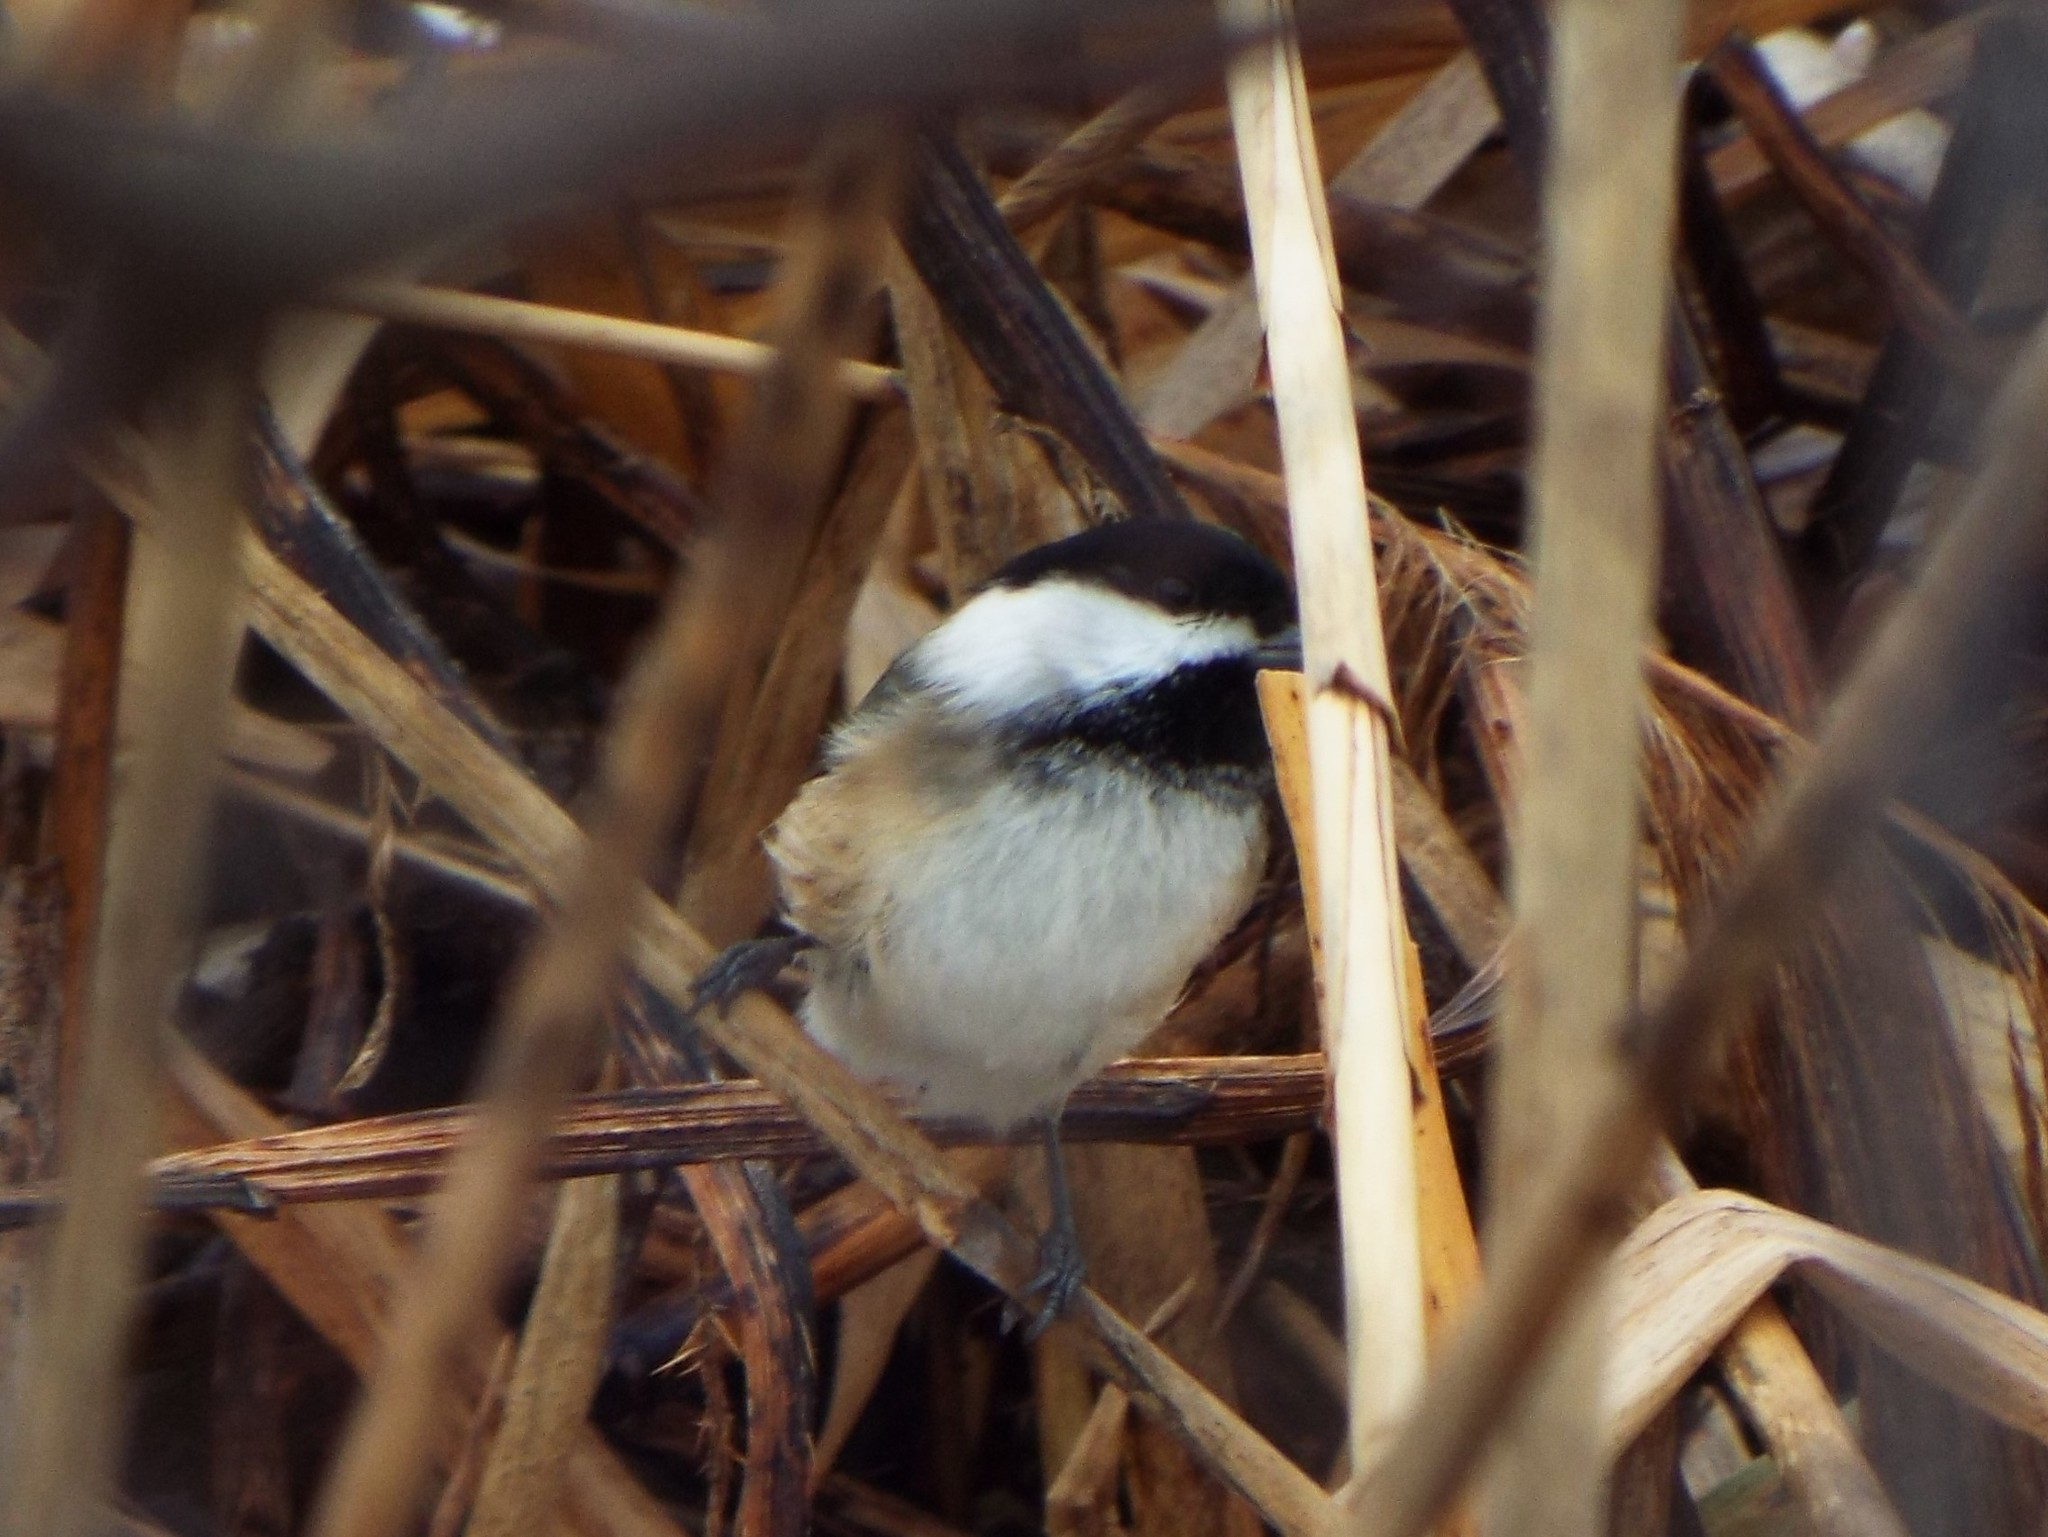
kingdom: Animalia
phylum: Chordata
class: Aves
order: Passeriformes
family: Paridae
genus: Poecile
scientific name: Poecile atricapillus
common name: Black-capped chickadee
